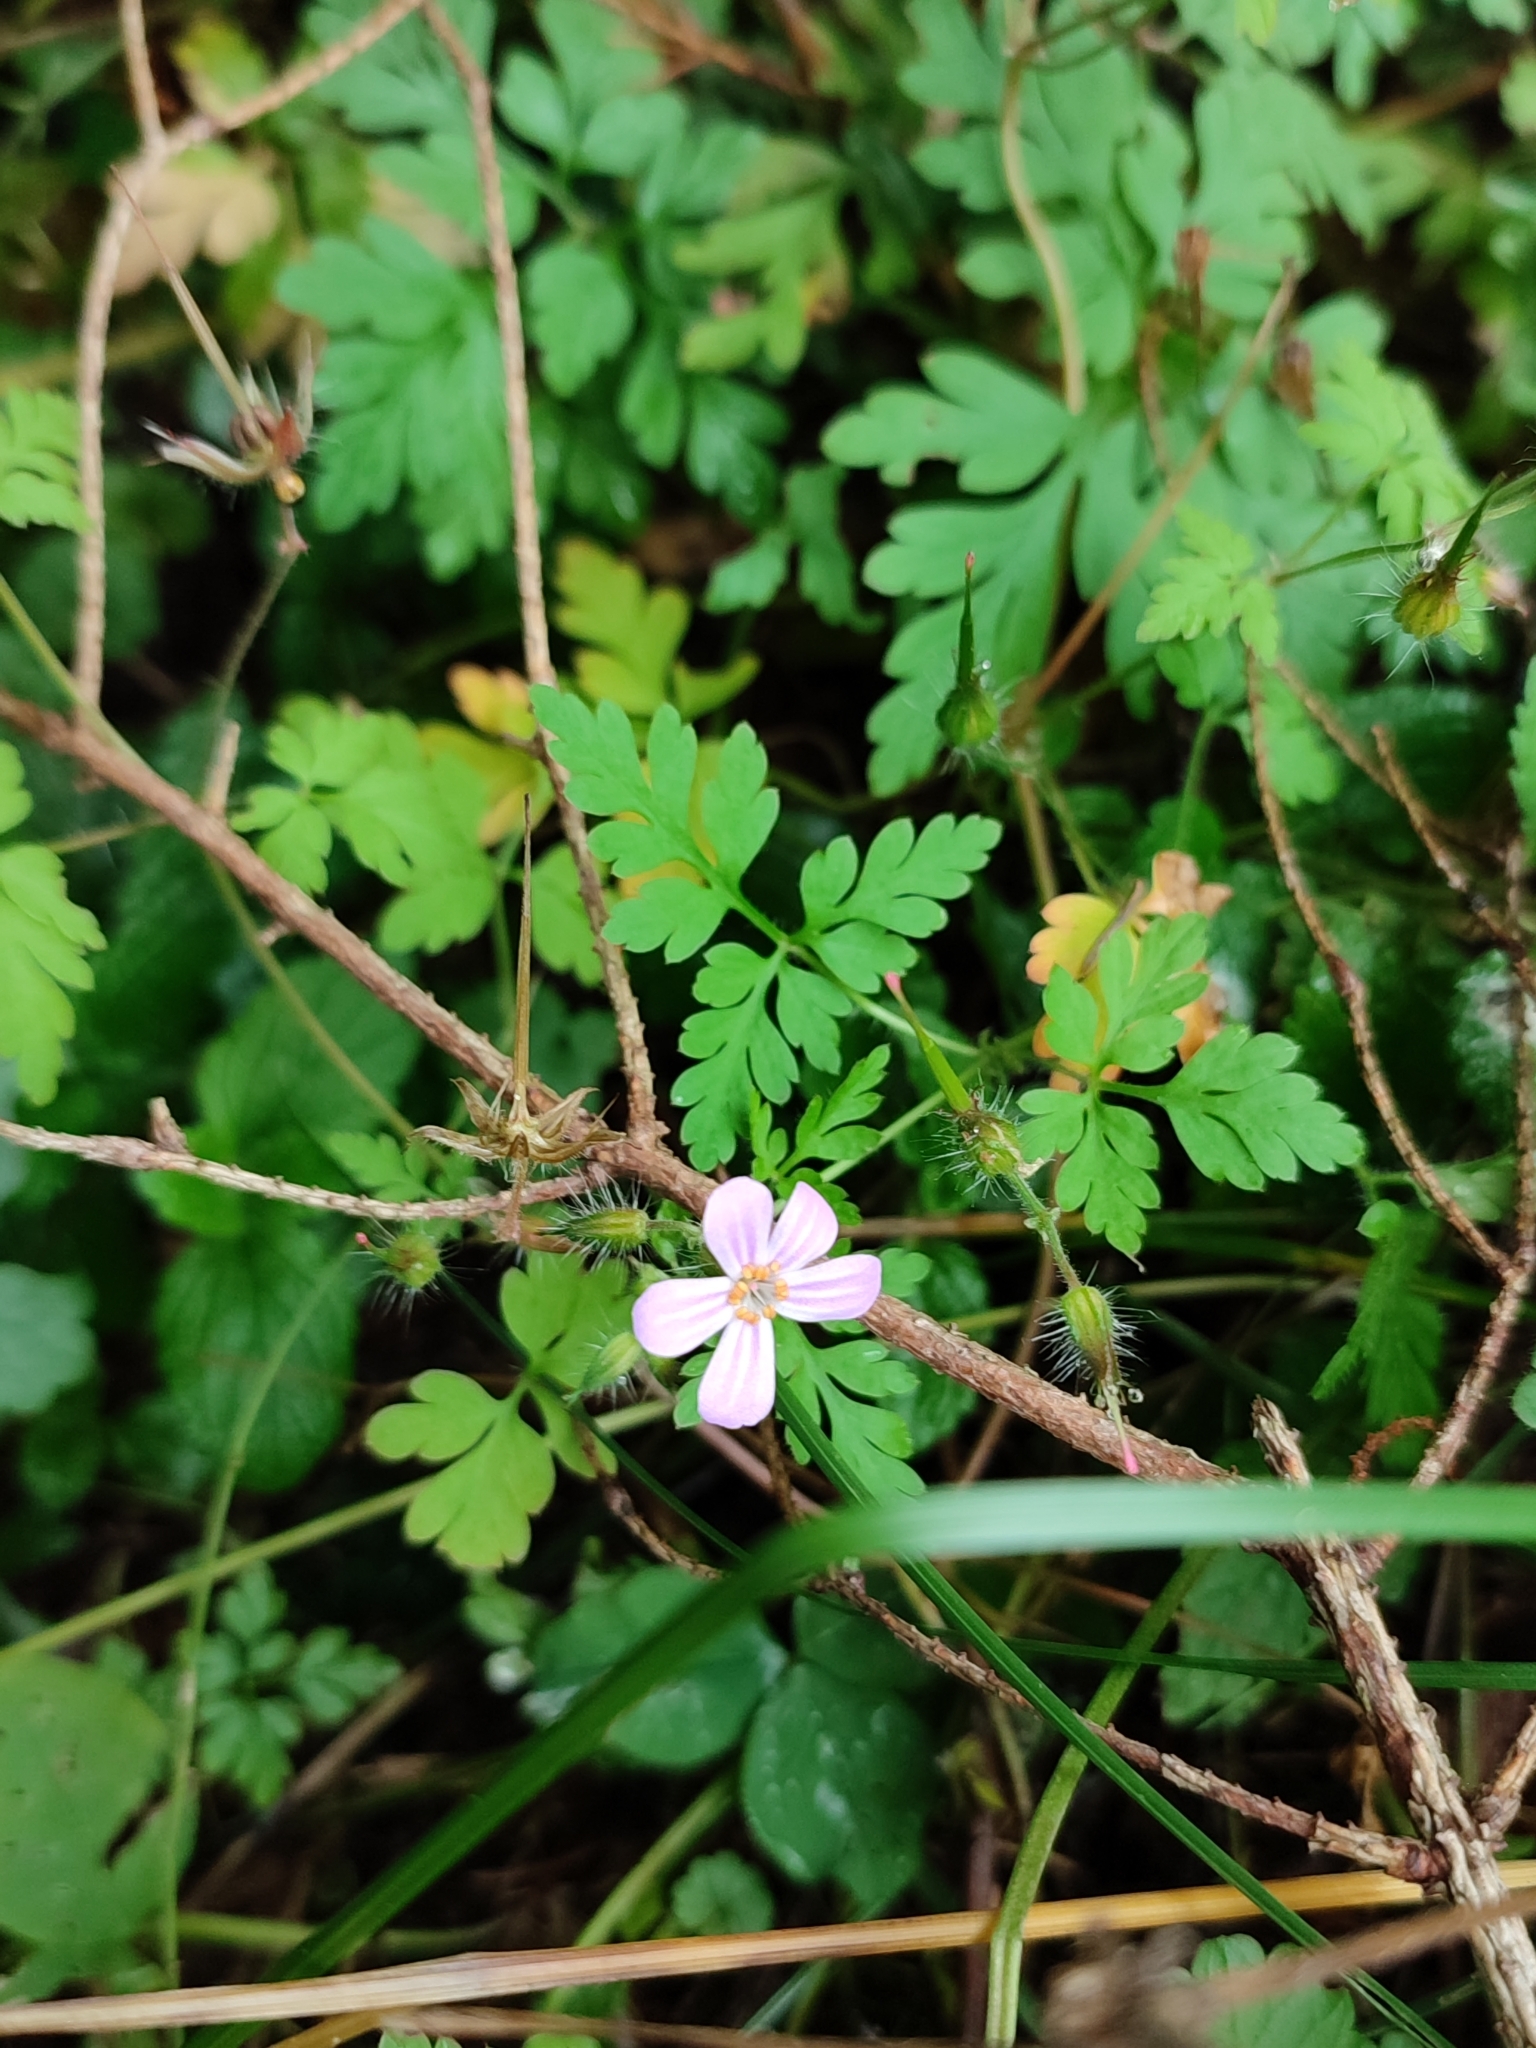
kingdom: Plantae
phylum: Tracheophyta
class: Magnoliopsida
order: Geraniales
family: Geraniaceae
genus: Geranium
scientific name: Geranium robertianum
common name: Herb-robert
